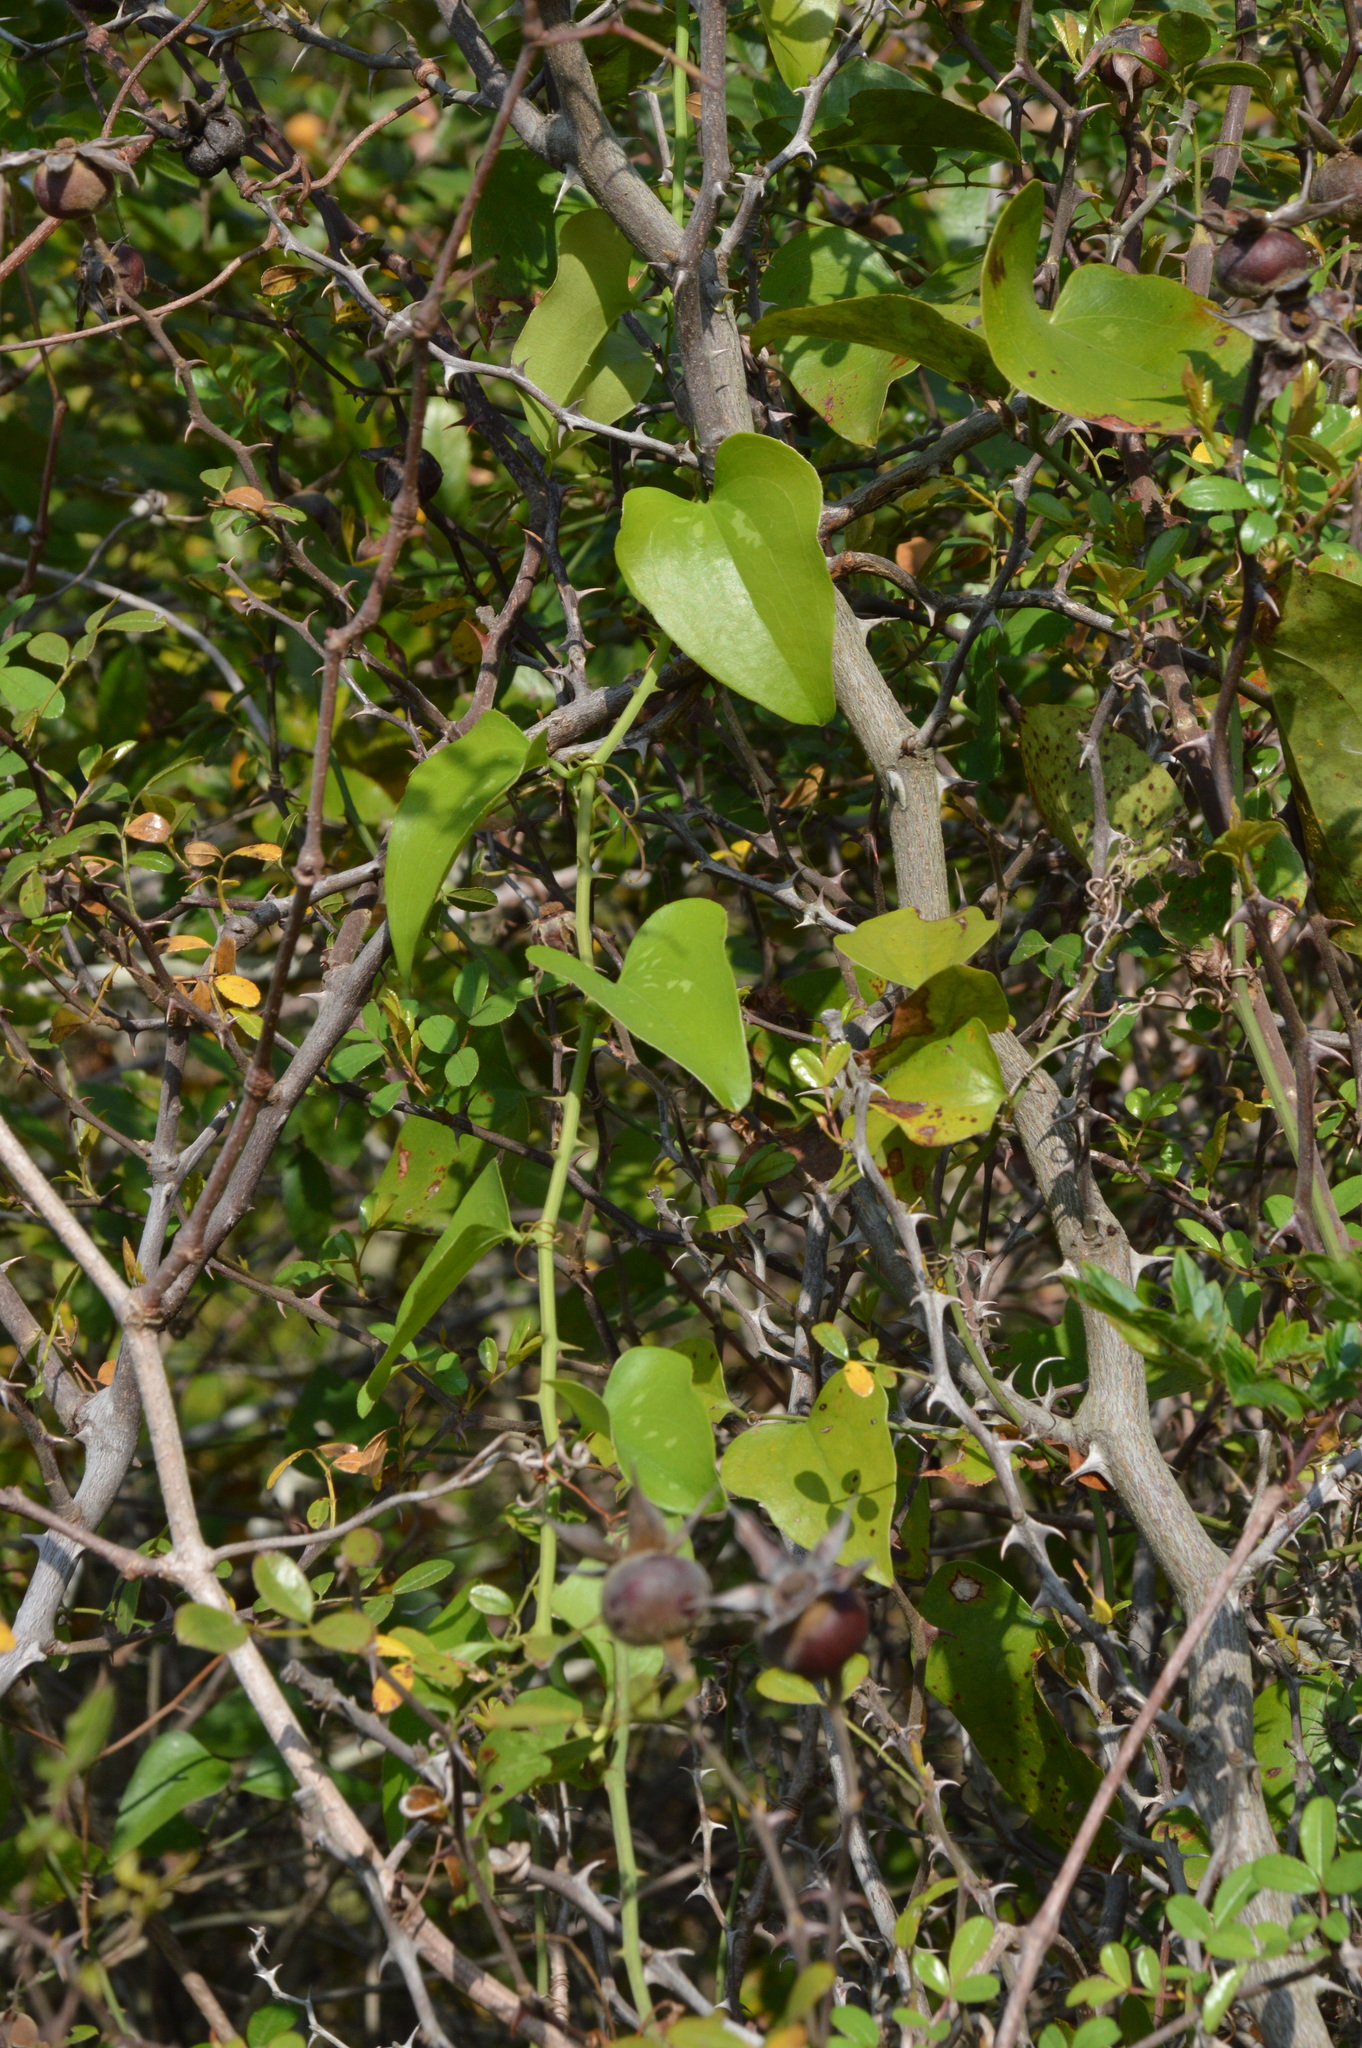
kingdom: Plantae
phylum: Tracheophyta
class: Liliopsida
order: Liliales
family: Smilacaceae
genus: Smilax
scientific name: Smilax bona-nox
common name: Catbrier
